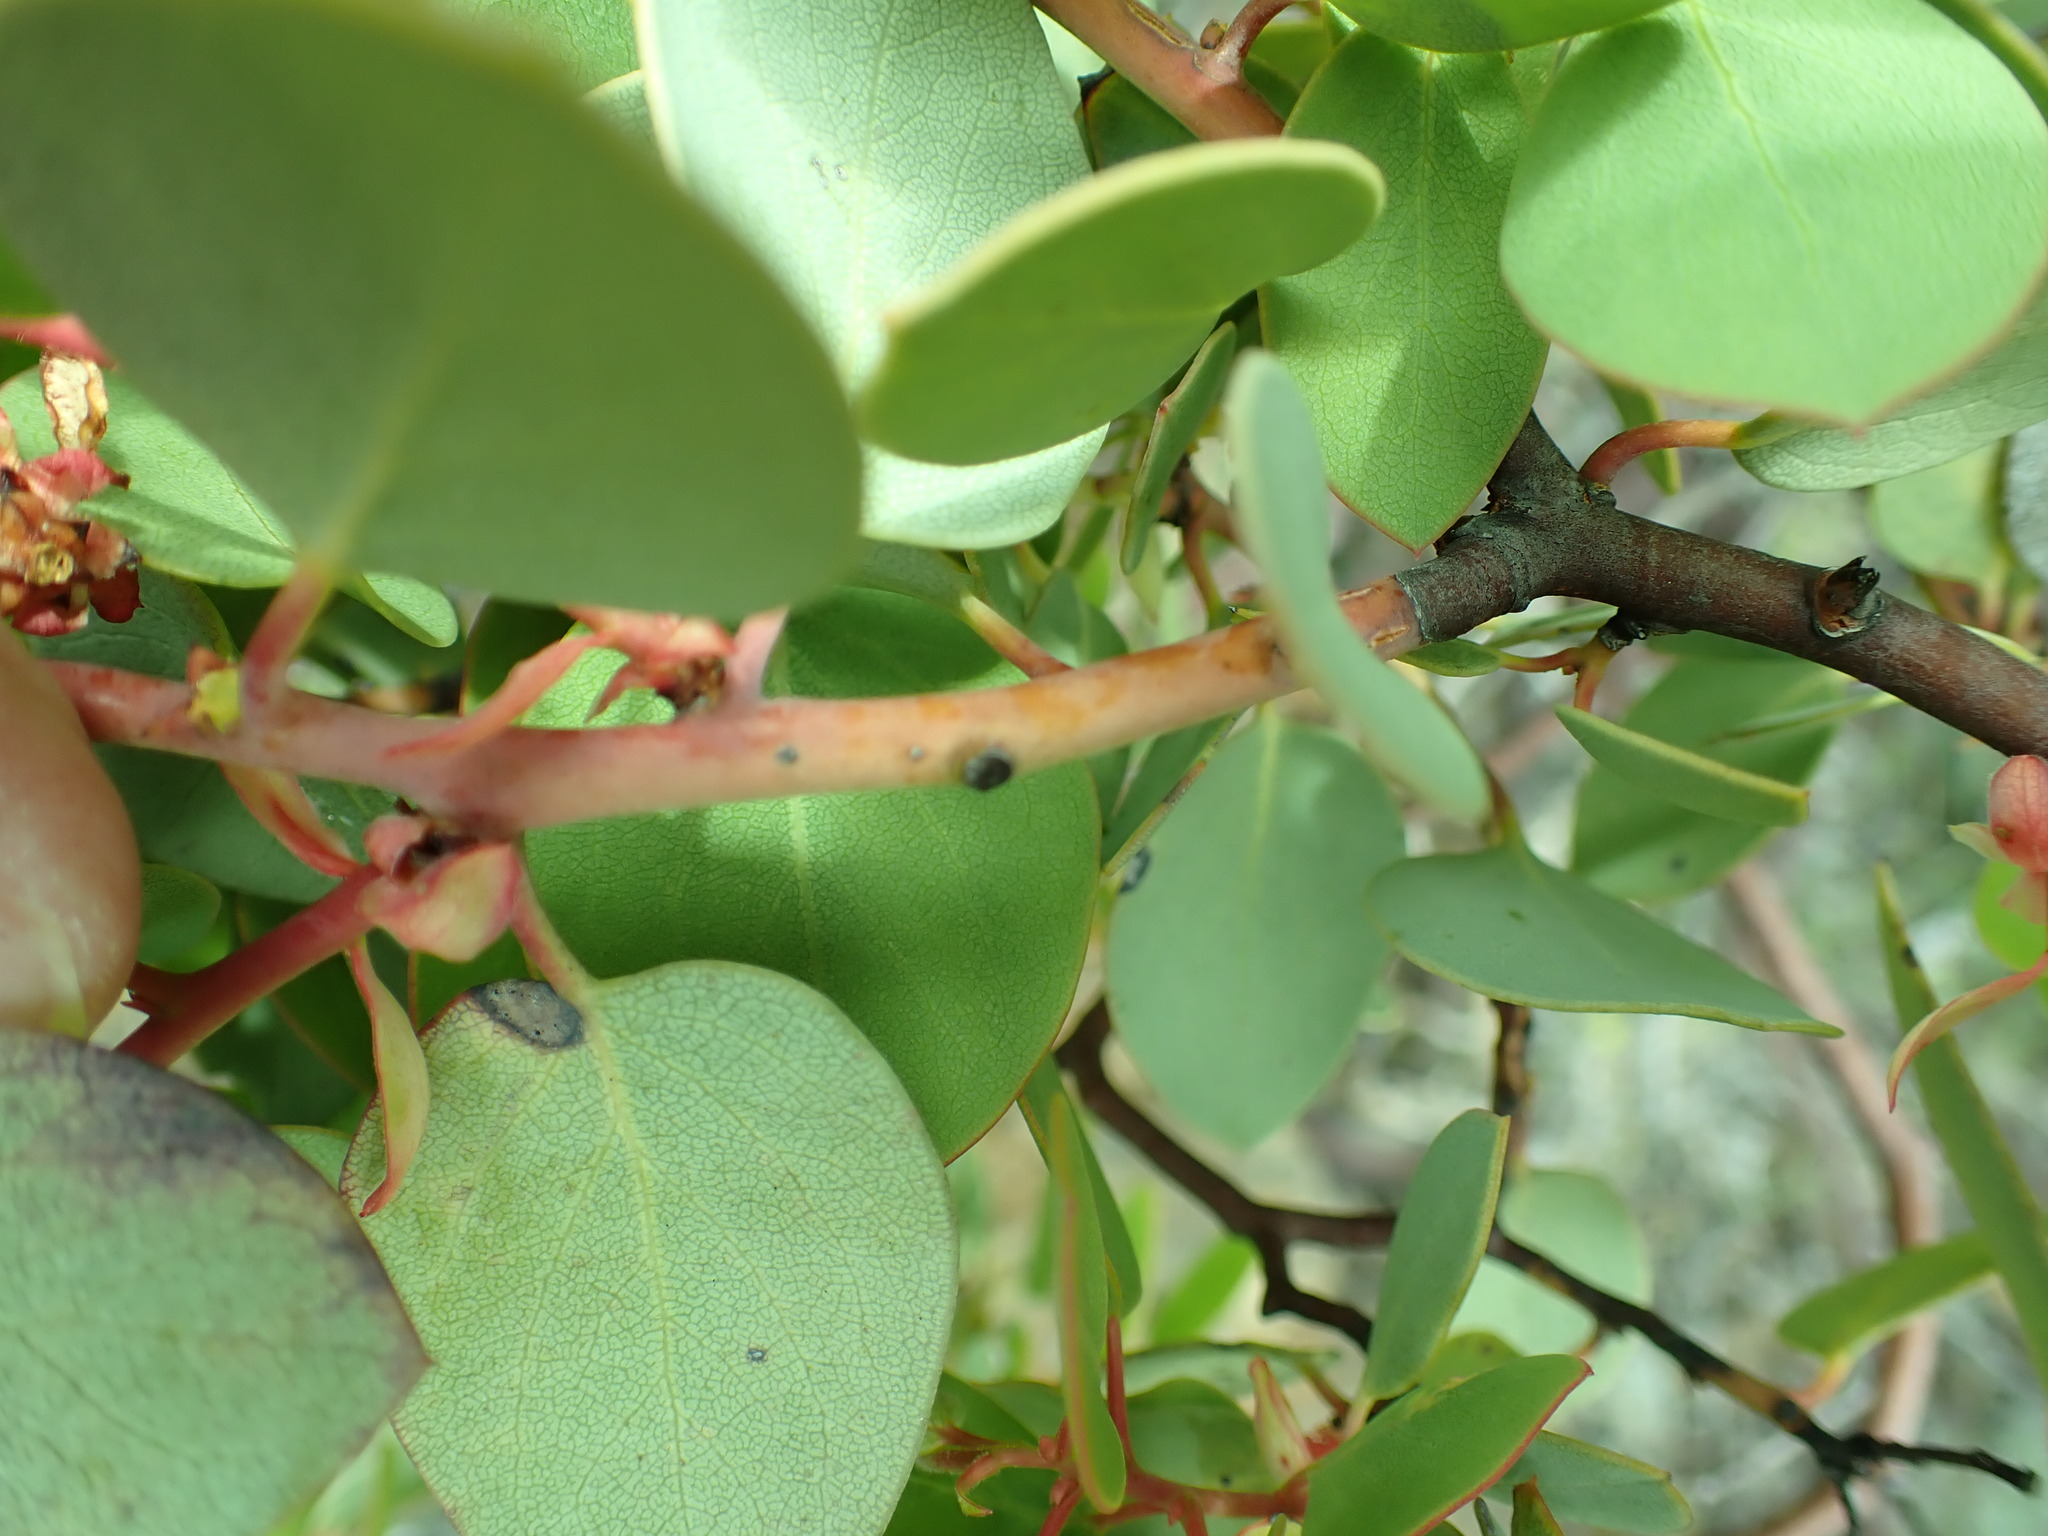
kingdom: Plantae
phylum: Tracheophyta
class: Magnoliopsida
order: Ericales
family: Ericaceae
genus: Arctostaphylos
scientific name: Arctostaphylos patula
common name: Green-leaf manzanita
